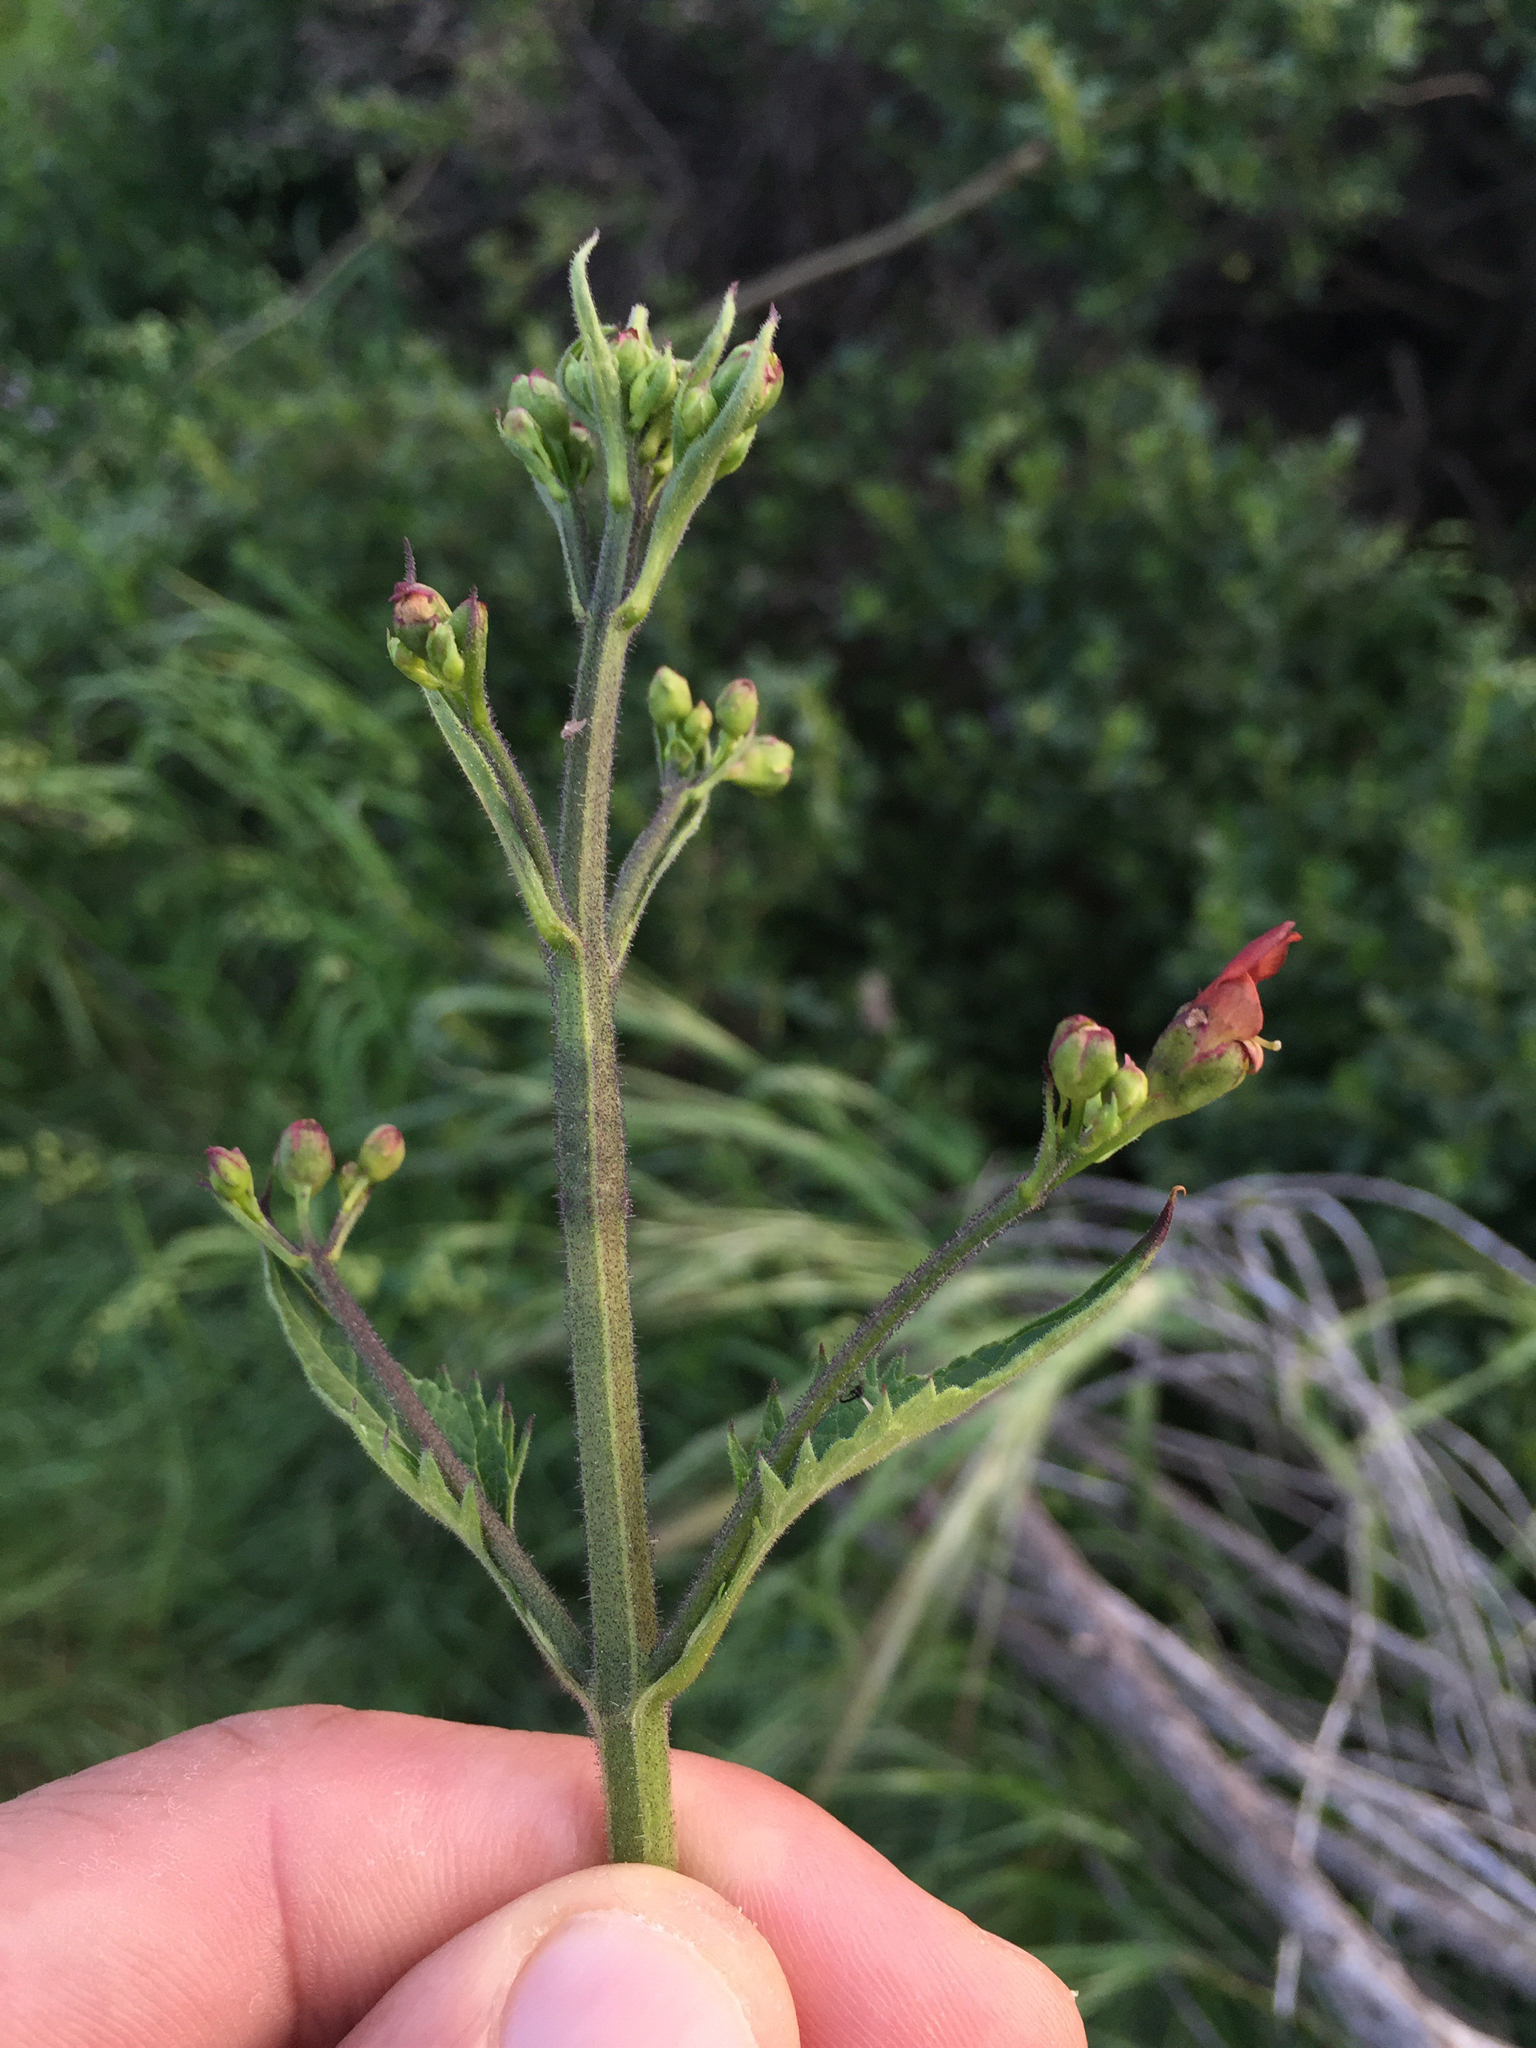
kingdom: Plantae
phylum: Tracheophyta
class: Magnoliopsida
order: Lamiales
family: Scrophulariaceae
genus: Scrophularia
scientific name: Scrophularia californica
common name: California figwort
